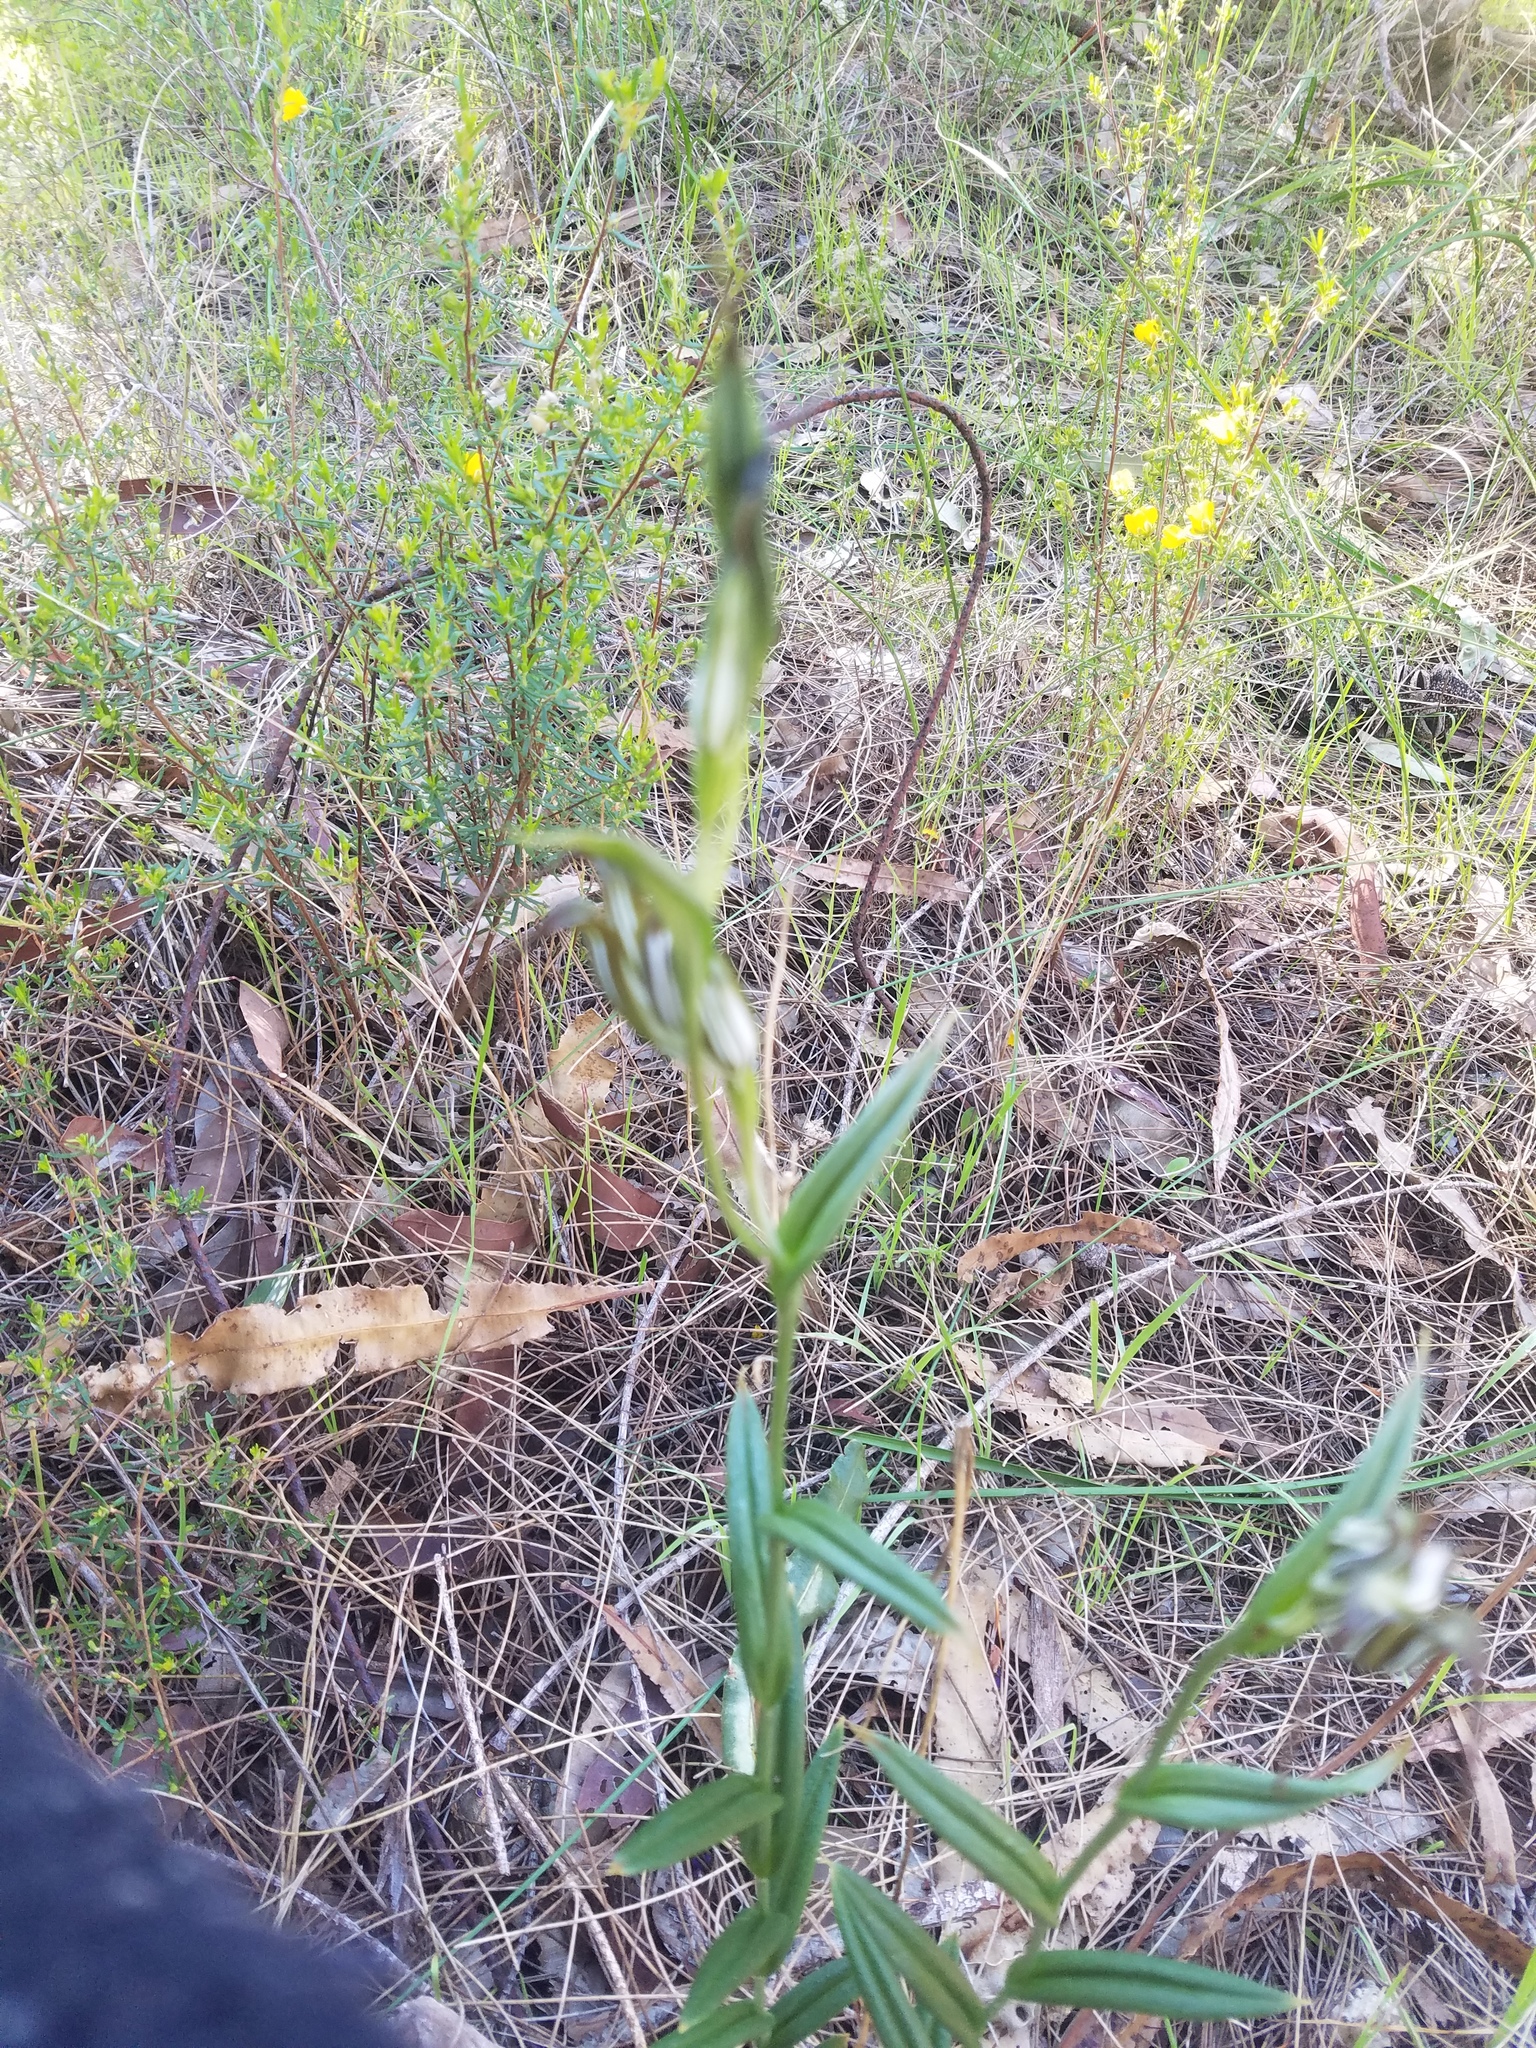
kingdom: Plantae
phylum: Tracheophyta
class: Liliopsida
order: Asparagales
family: Orchidaceae
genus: Pterostylis
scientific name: Pterostylis recurva
